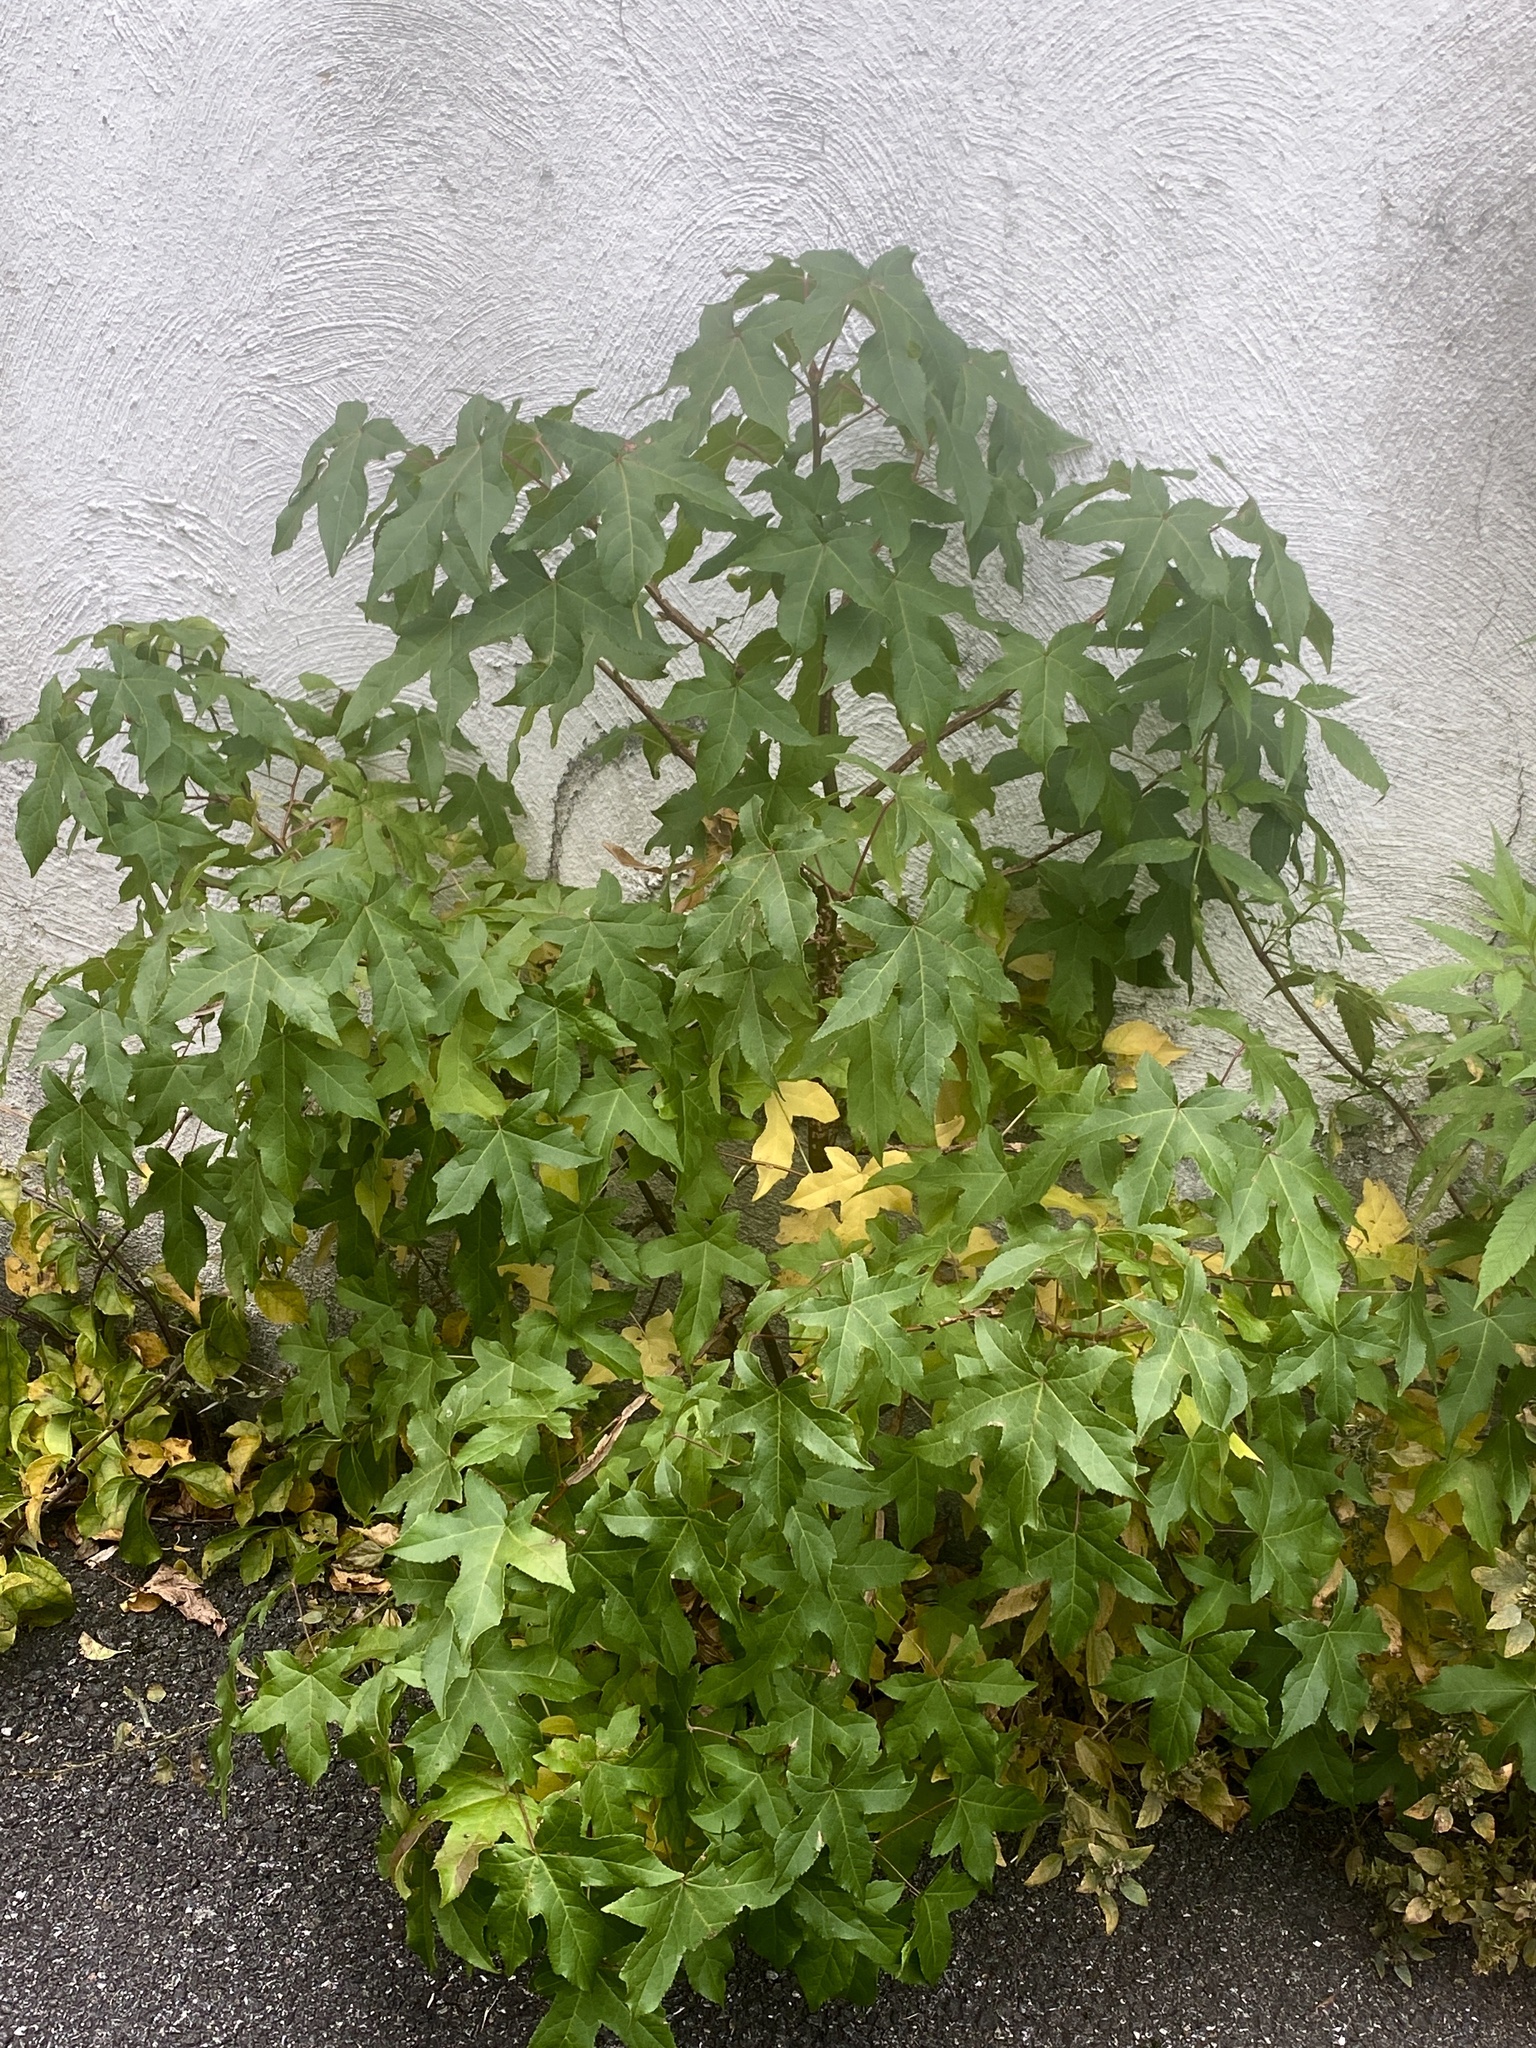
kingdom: Plantae
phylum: Tracheophyta
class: Magnoliopsida
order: Saxifragales
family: Altingiaceae
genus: Liquidambar
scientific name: Liquidambar styraciflua
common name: Sweet gum
